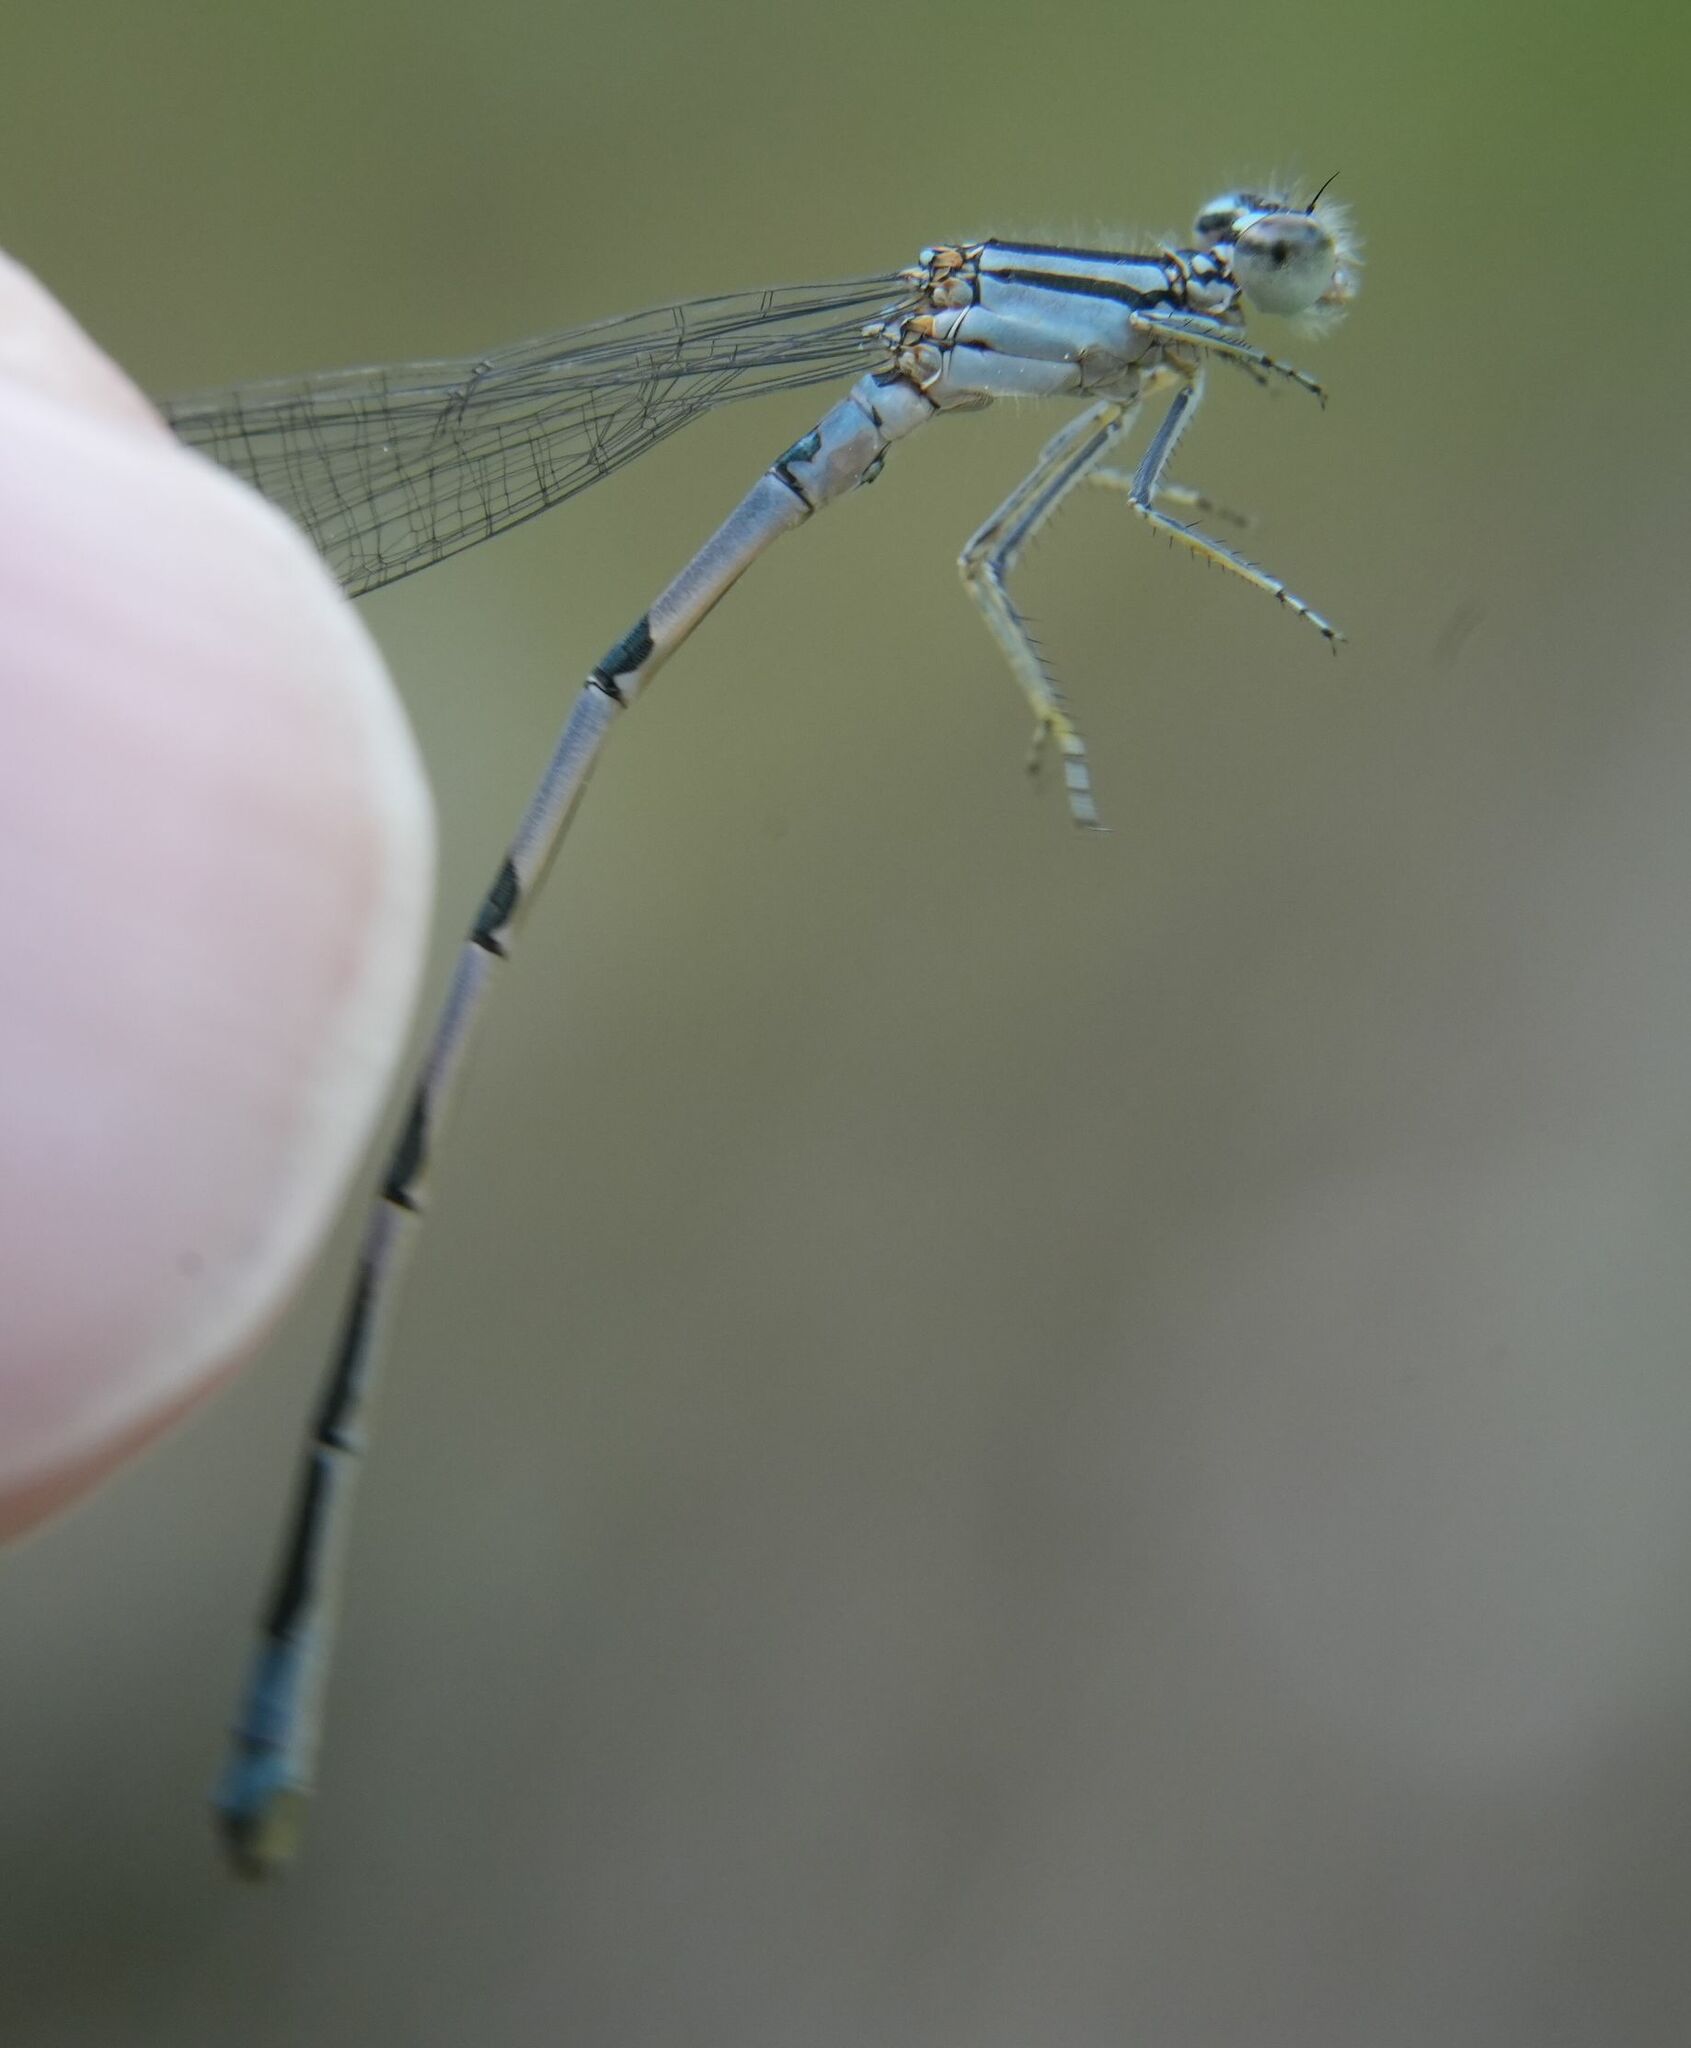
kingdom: Animalia
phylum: Arthropoda
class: Insecta
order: Odonata
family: Coenagrionidae
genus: Enallagma
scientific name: Enallagma ebrium
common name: Marsh bluet
